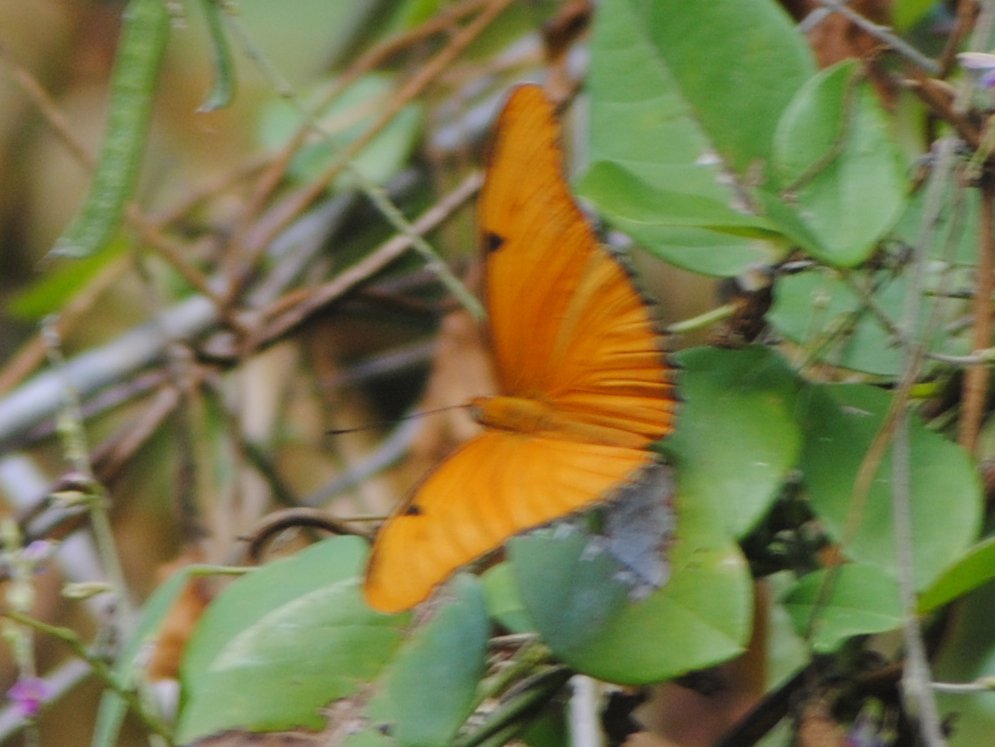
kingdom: Animalia
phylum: Arthropoda
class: Insecta
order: Lepidoptera
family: Nymphalidae
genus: Dryas
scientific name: Dryas iulia
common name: Flambeau
